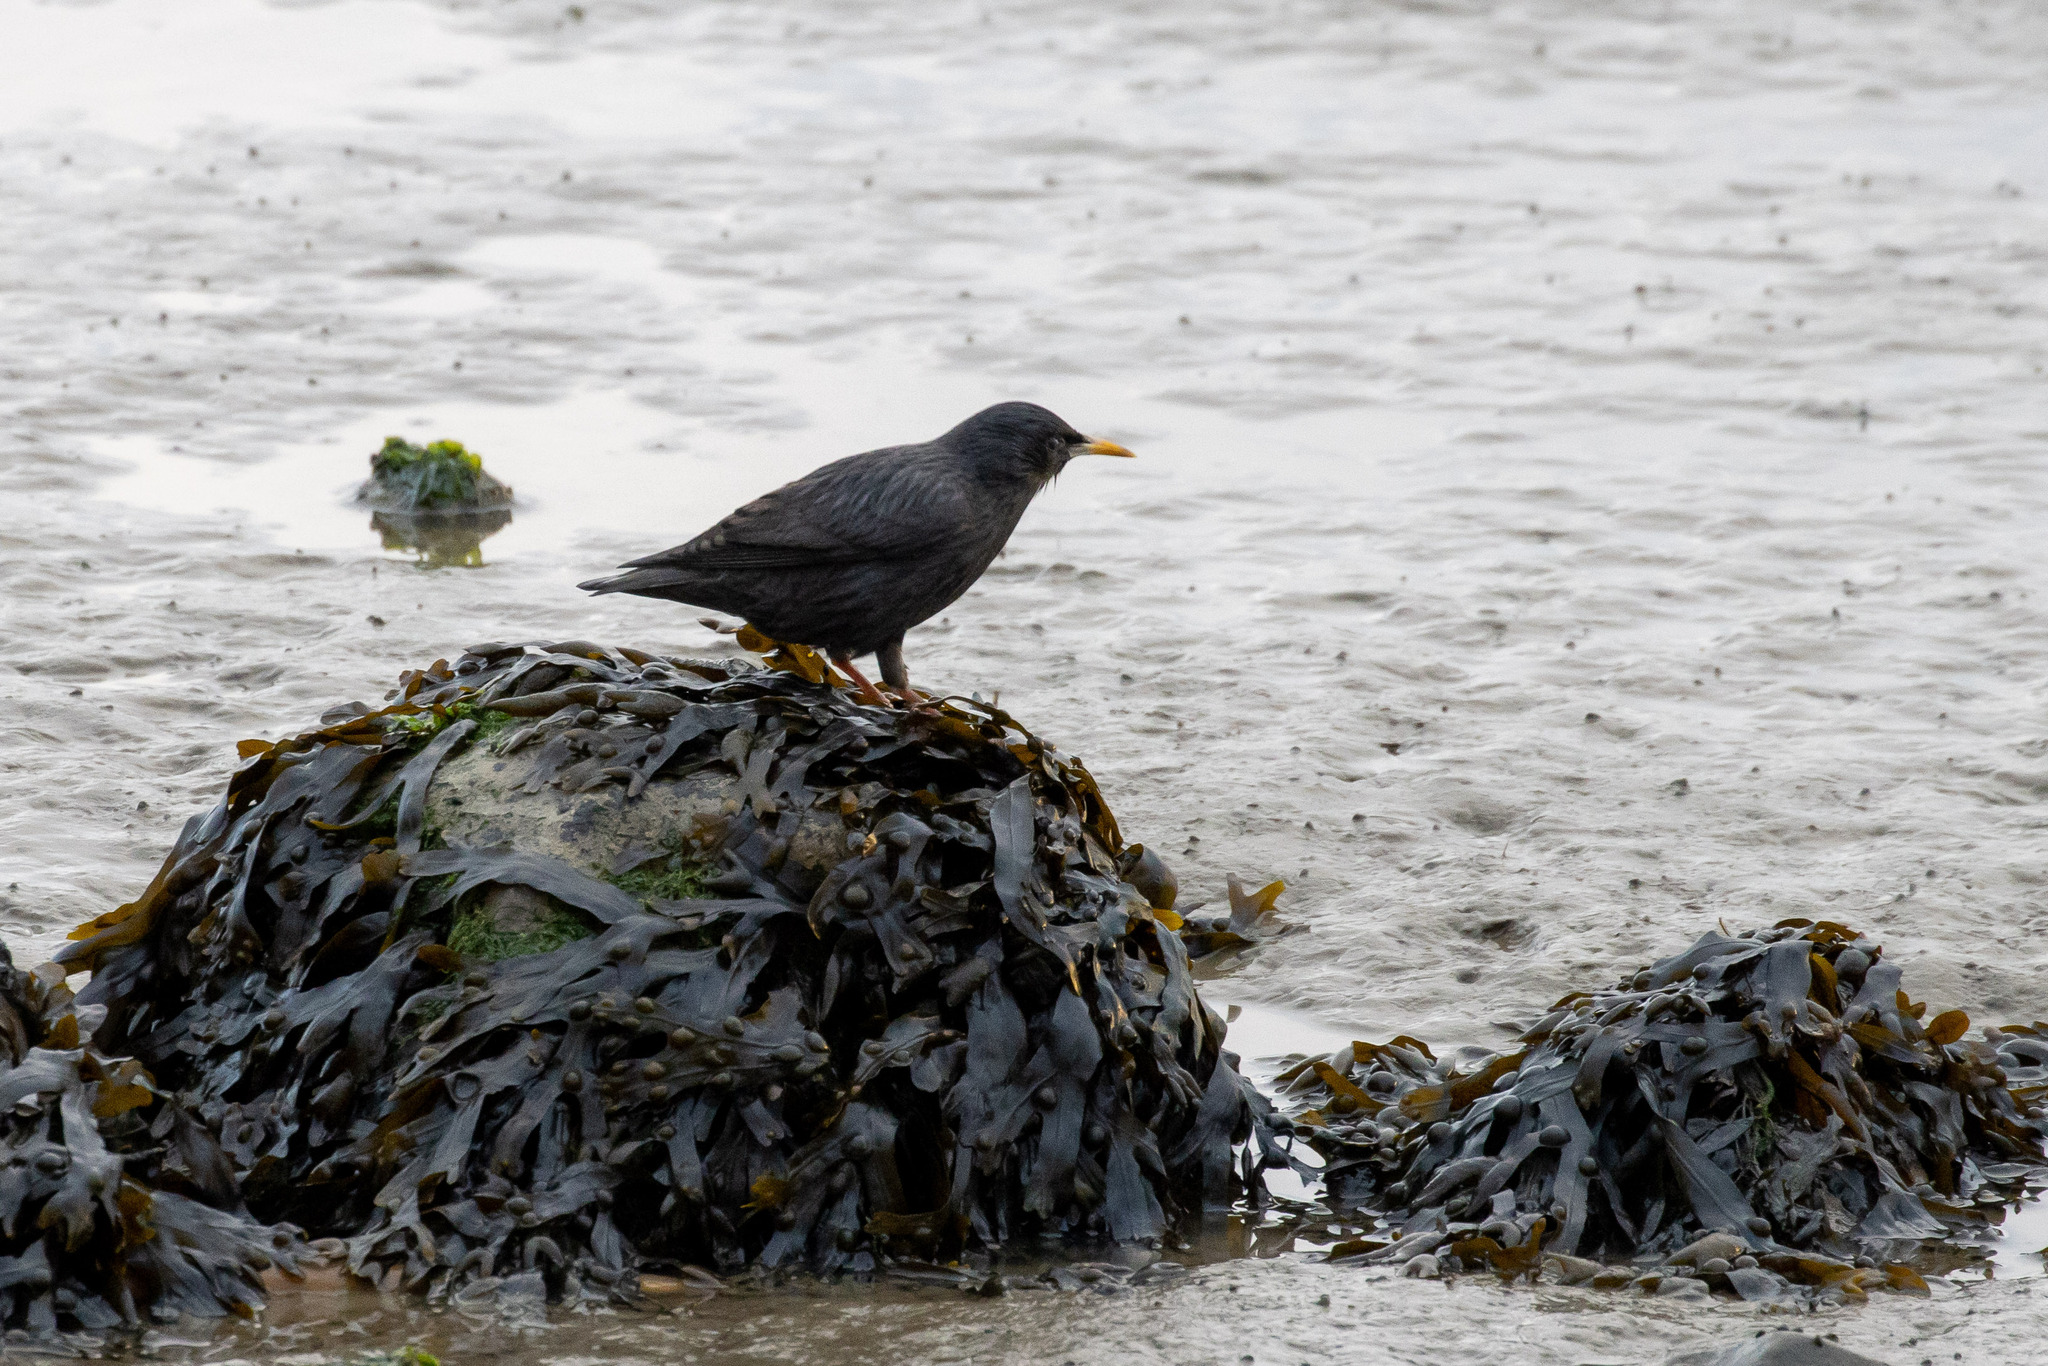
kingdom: Animalia
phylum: Chordata
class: Aves
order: Passeriformes
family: Sturnidae
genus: Sturnus
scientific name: Sturnus unicolor
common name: Spotless starling
